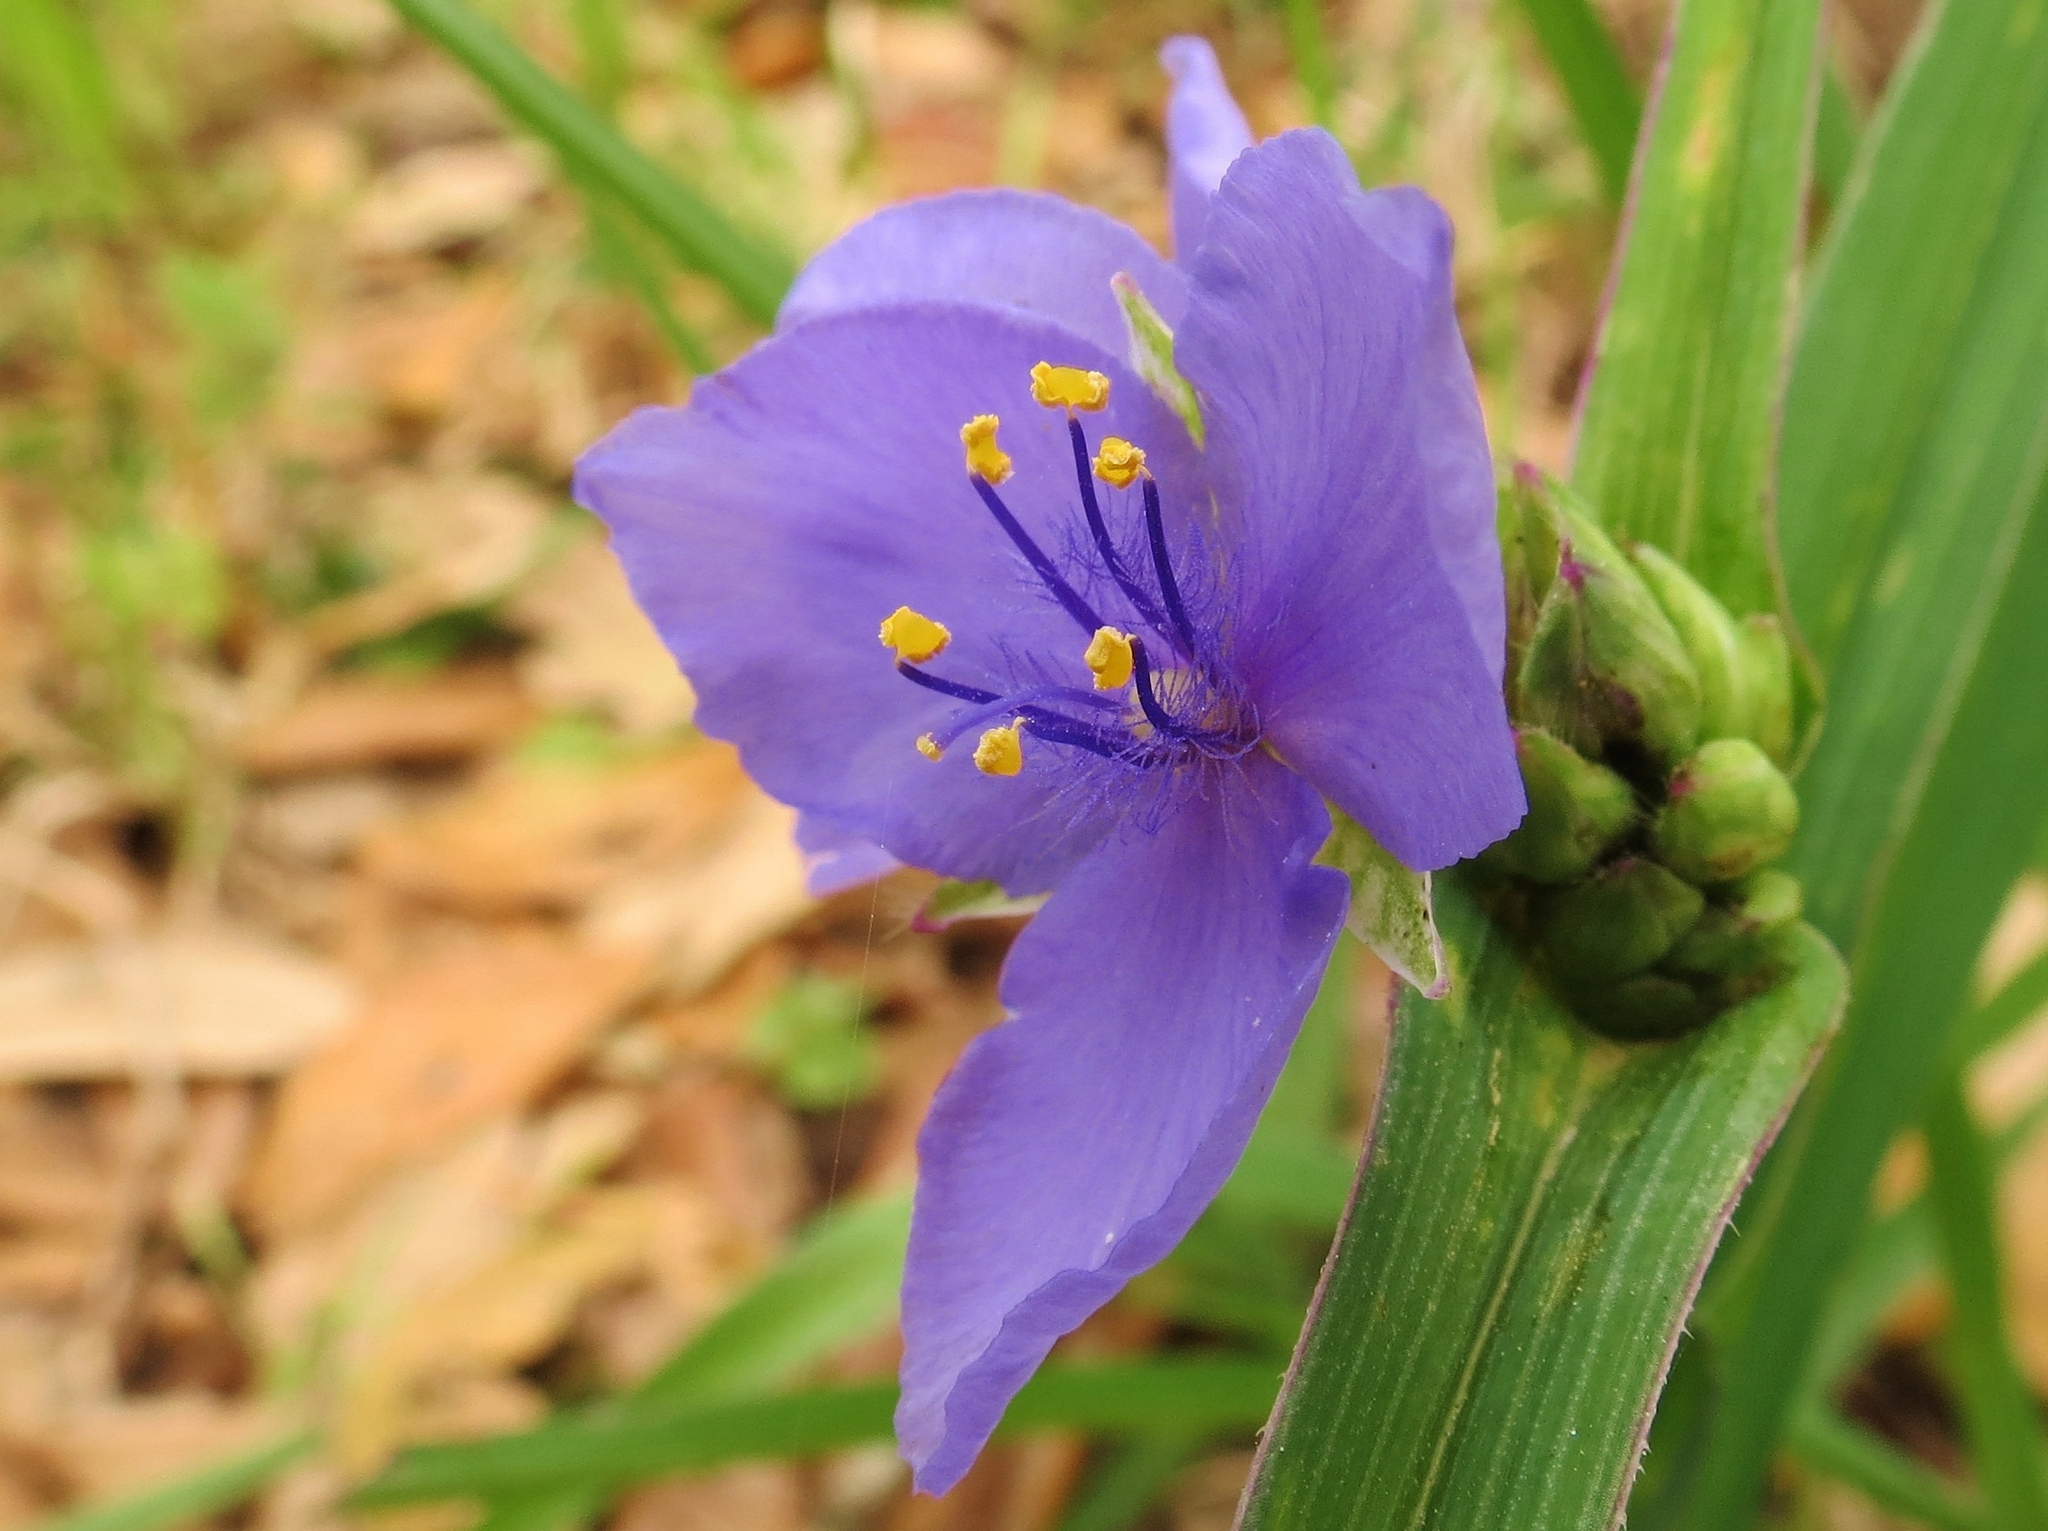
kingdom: Plantae
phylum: Tracheophyta
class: Liliopsida
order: Commelinales
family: Commelinaceae
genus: Tradescantia
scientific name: Tradescantia
